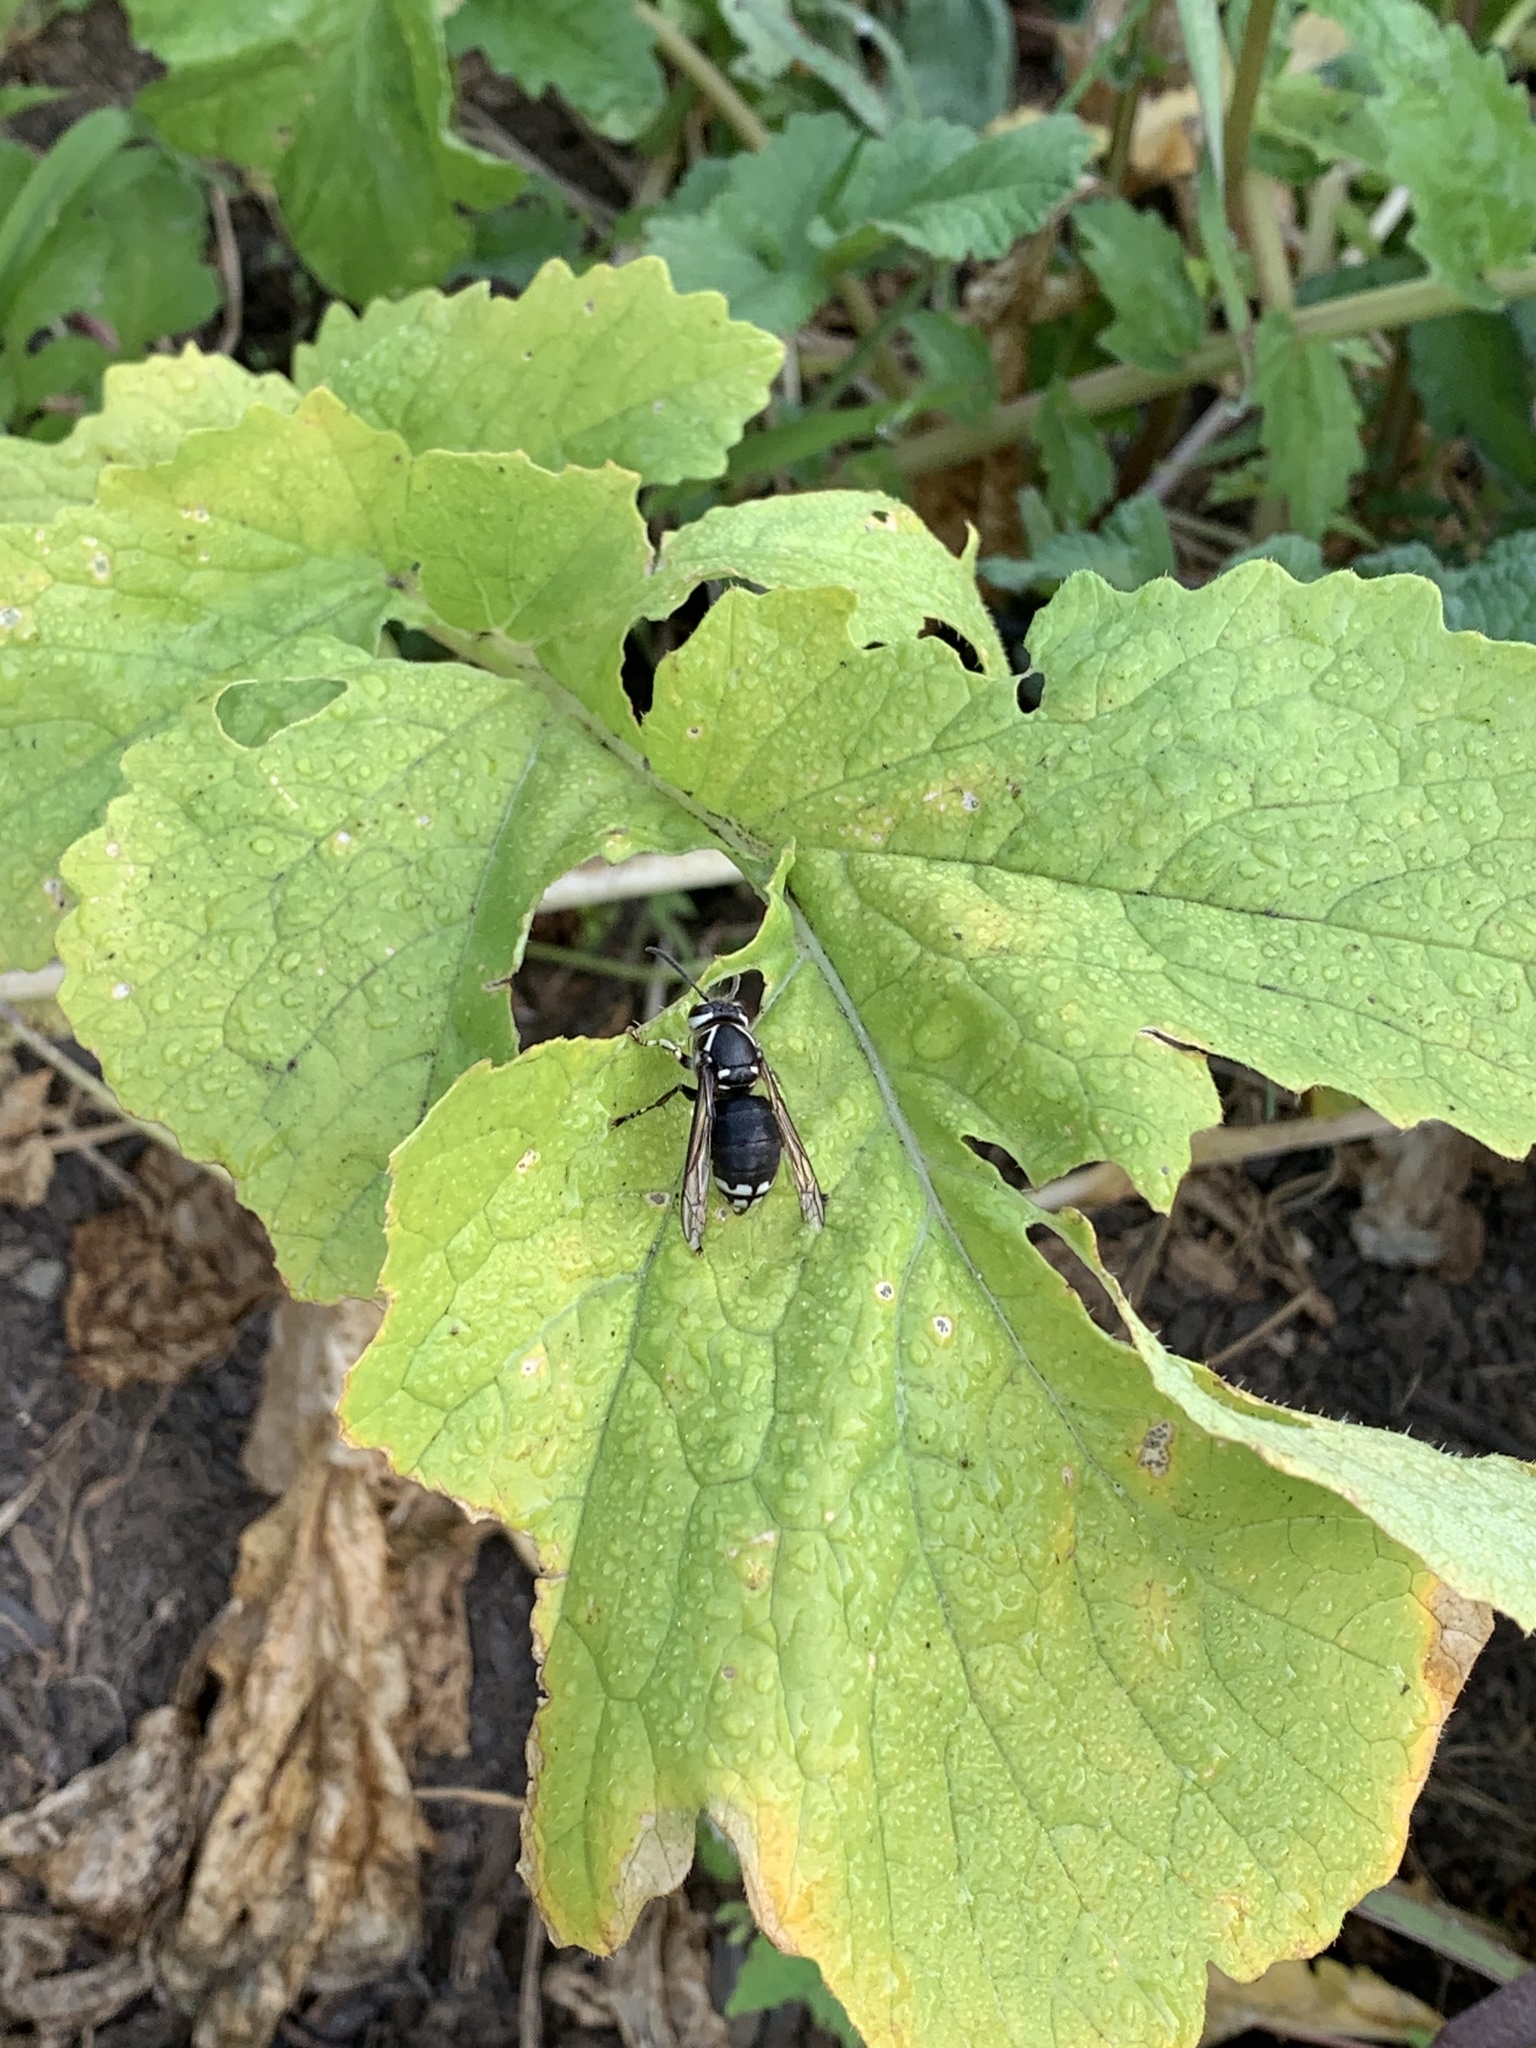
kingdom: Animalia
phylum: Arthropoda
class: Insecta
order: Hymenoptera
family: Vespidae
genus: Dolichovespula
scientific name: Dolichovespula maculata
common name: Bald-faced hornet
